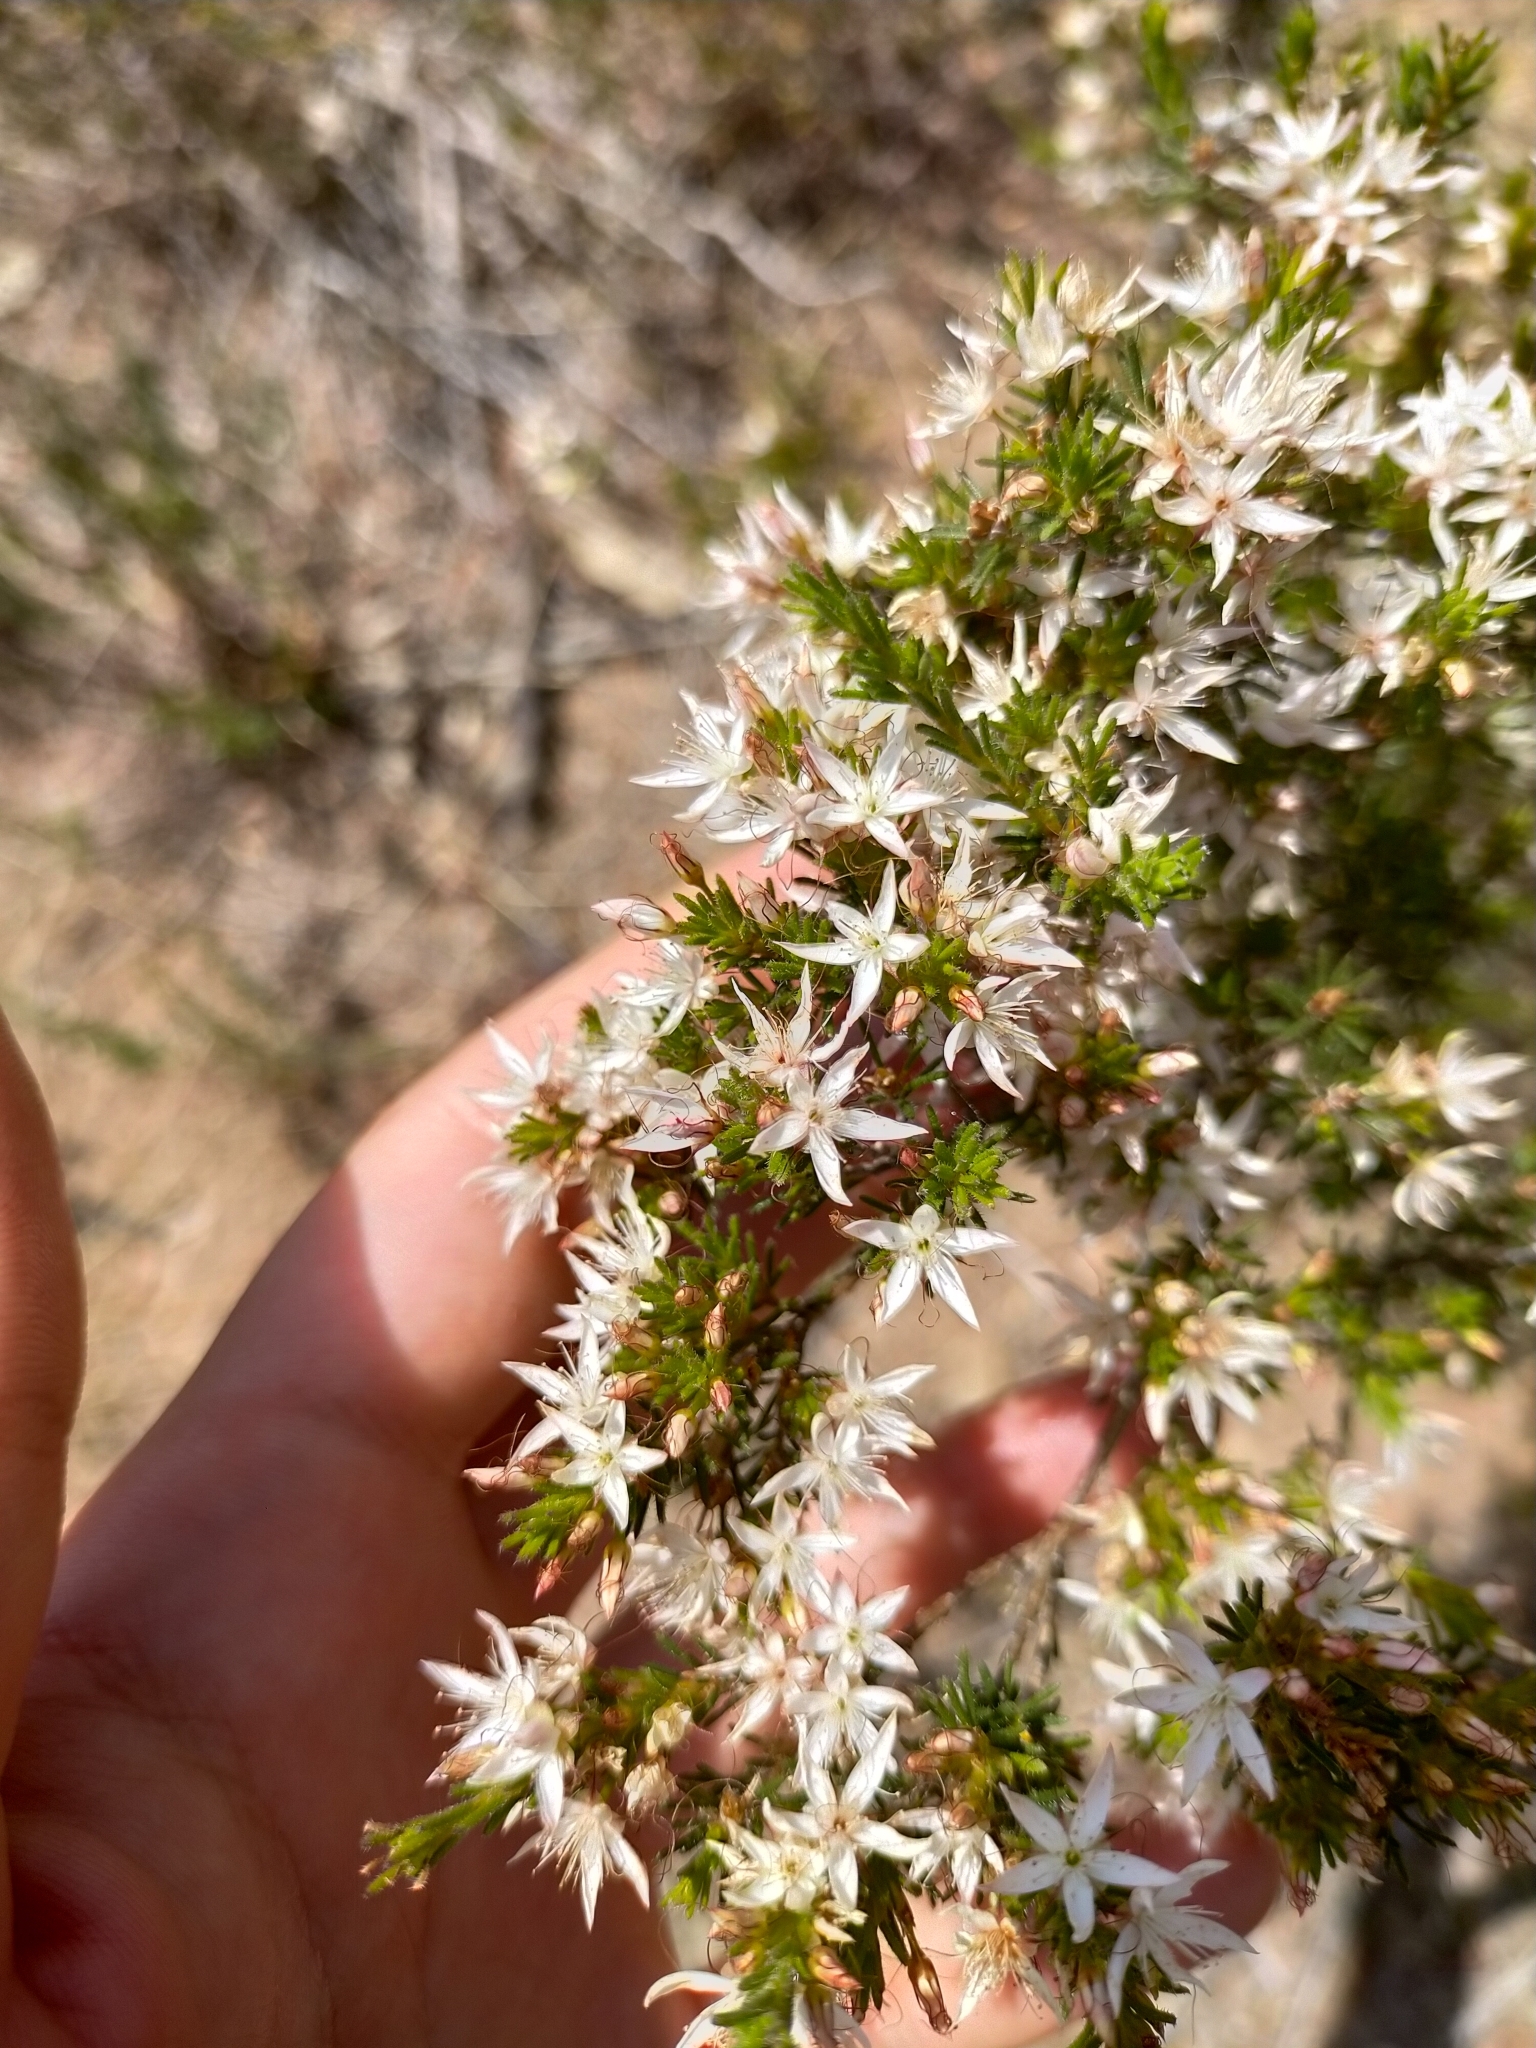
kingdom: Plantae
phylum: Tracheophyta
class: Magnoliopsida
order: Myrtales
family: Myrtaceae
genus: Calytrix
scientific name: Calytrix tetragona
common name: Common fringe myrtle
